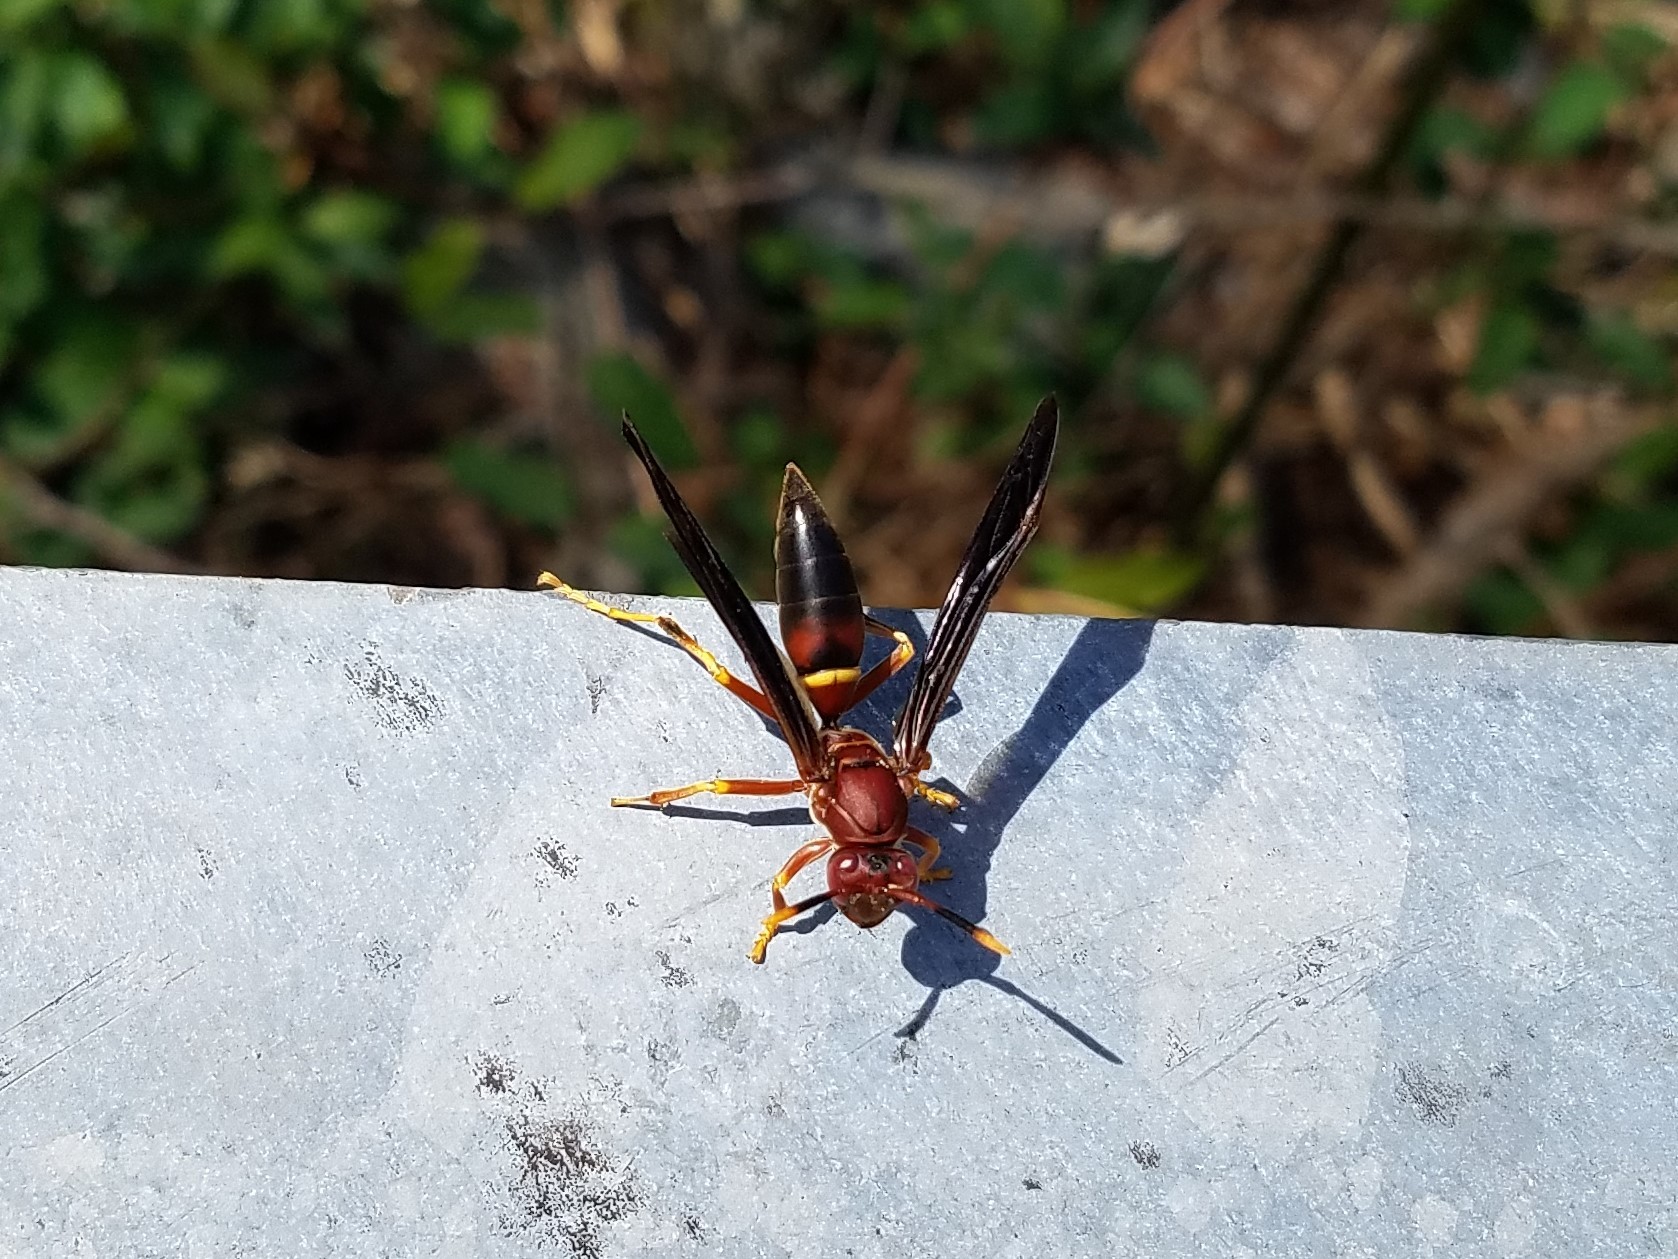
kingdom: Animalia
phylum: Arthropoda
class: Insecta
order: Hymenoptera
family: Eumenidae
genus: Polistes
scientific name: Polistes annularis
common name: Ringed paper wasp
